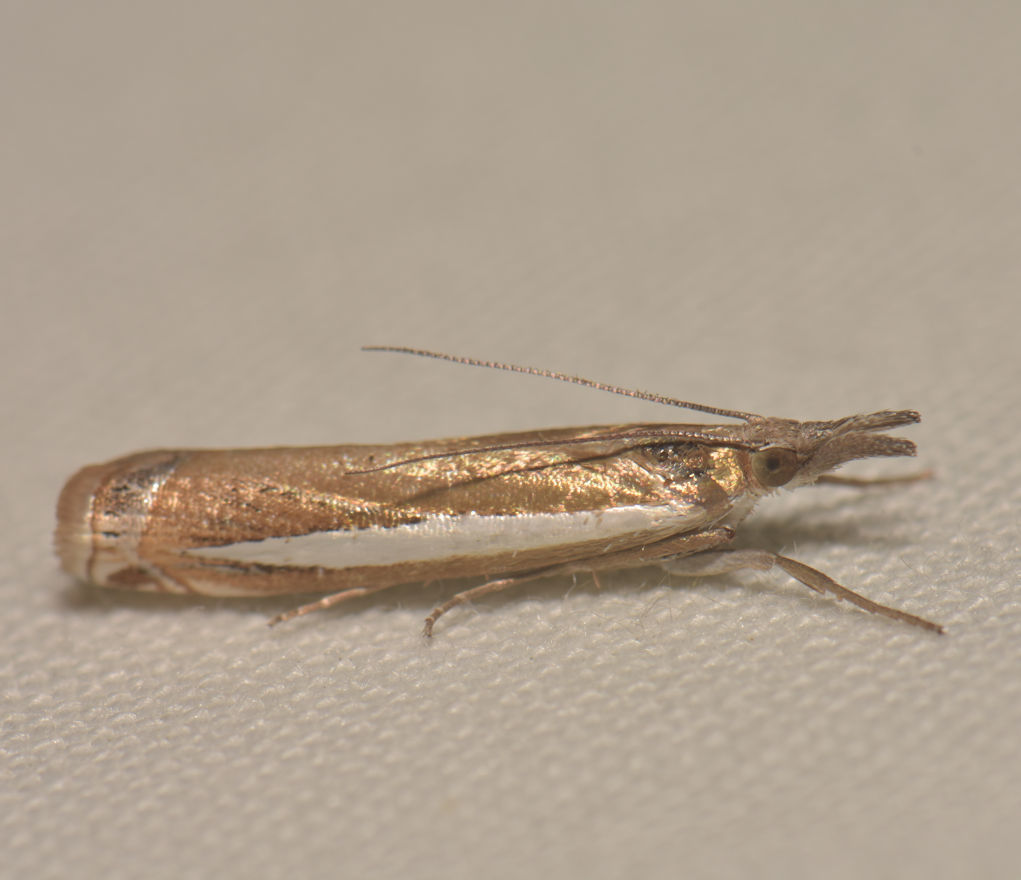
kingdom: Animalia
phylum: Arthropoda
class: Insecta
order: Lepidoptera
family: Crambidae
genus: Crambus
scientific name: Crambus praefectellus
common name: Common grass-veneer
